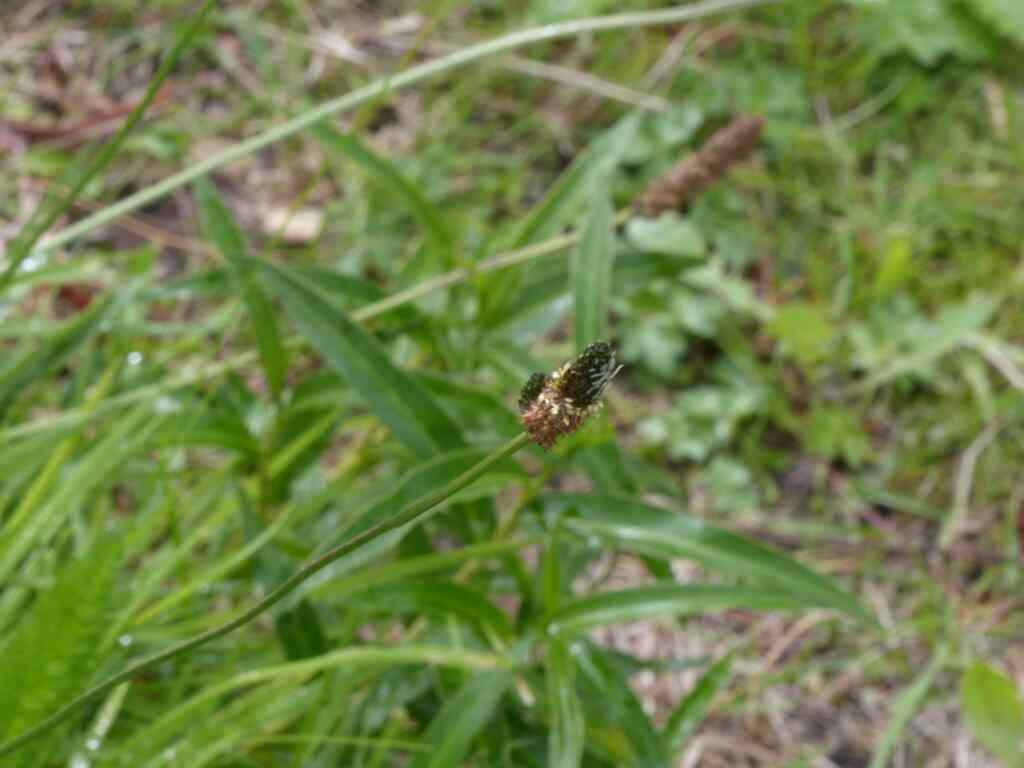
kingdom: Plantae
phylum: Tracheophyta
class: Magnoliopsida
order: Lamiales
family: Plantaginaceae
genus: Plantago
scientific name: Plantago lanceolata
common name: Ribwort plantain
